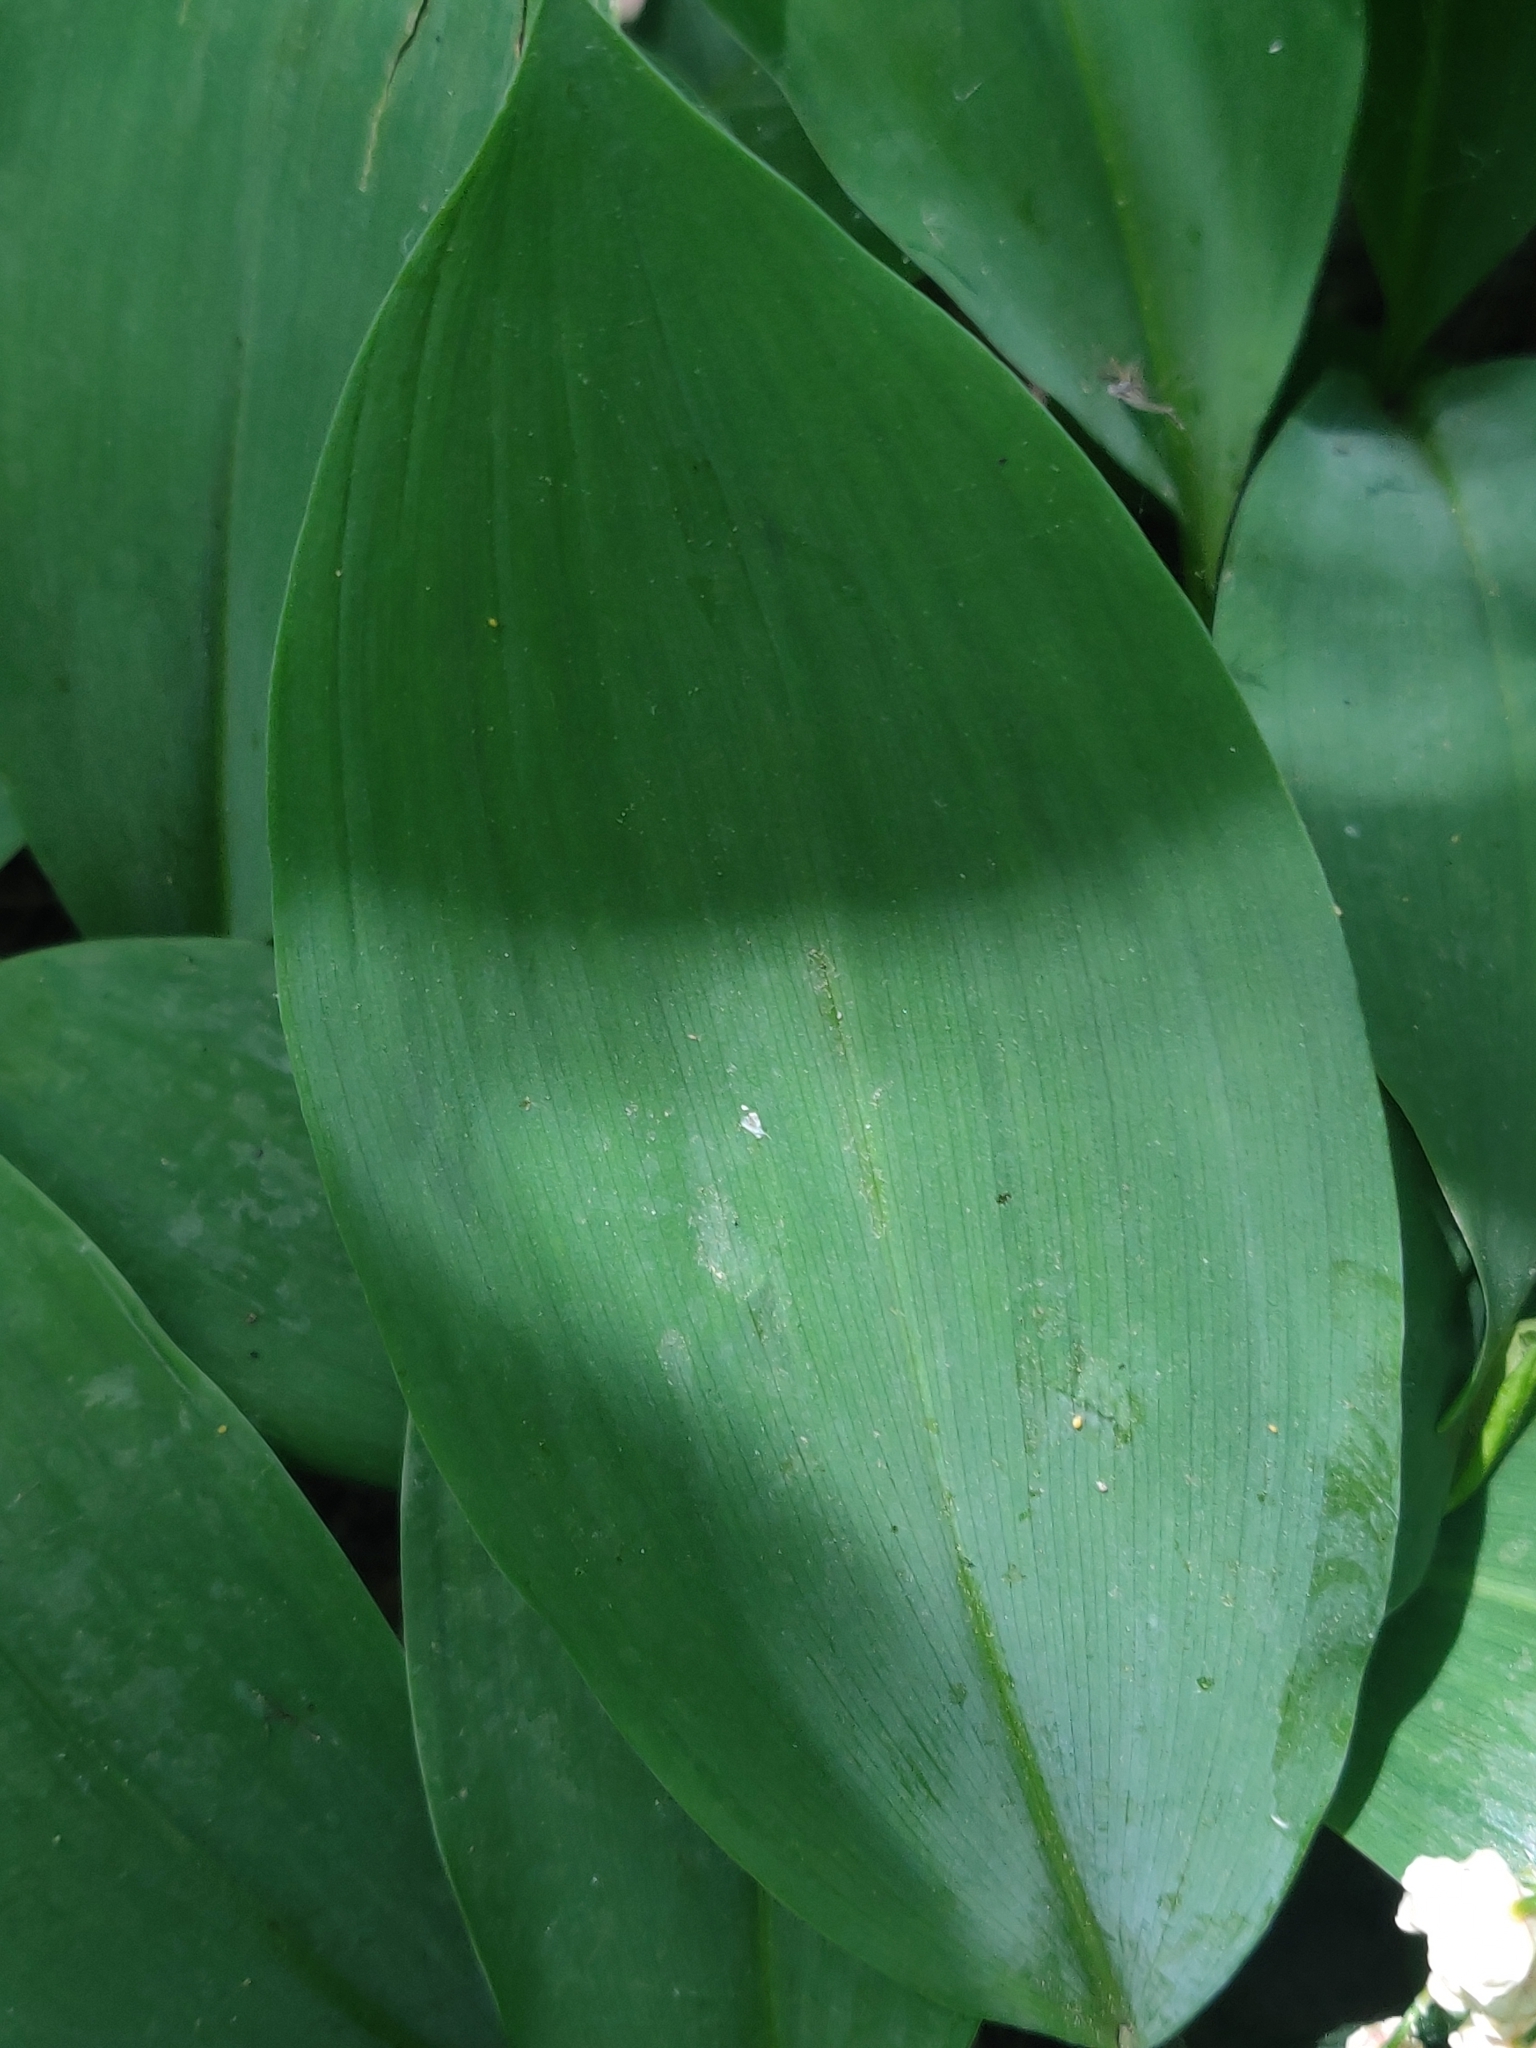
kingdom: Plantae
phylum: Tracheophyta
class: Liliopsida
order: Asparagales
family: Asparagaceae
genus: Convallaria
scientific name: Convallaria majalis
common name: Lily-of-the-valley
